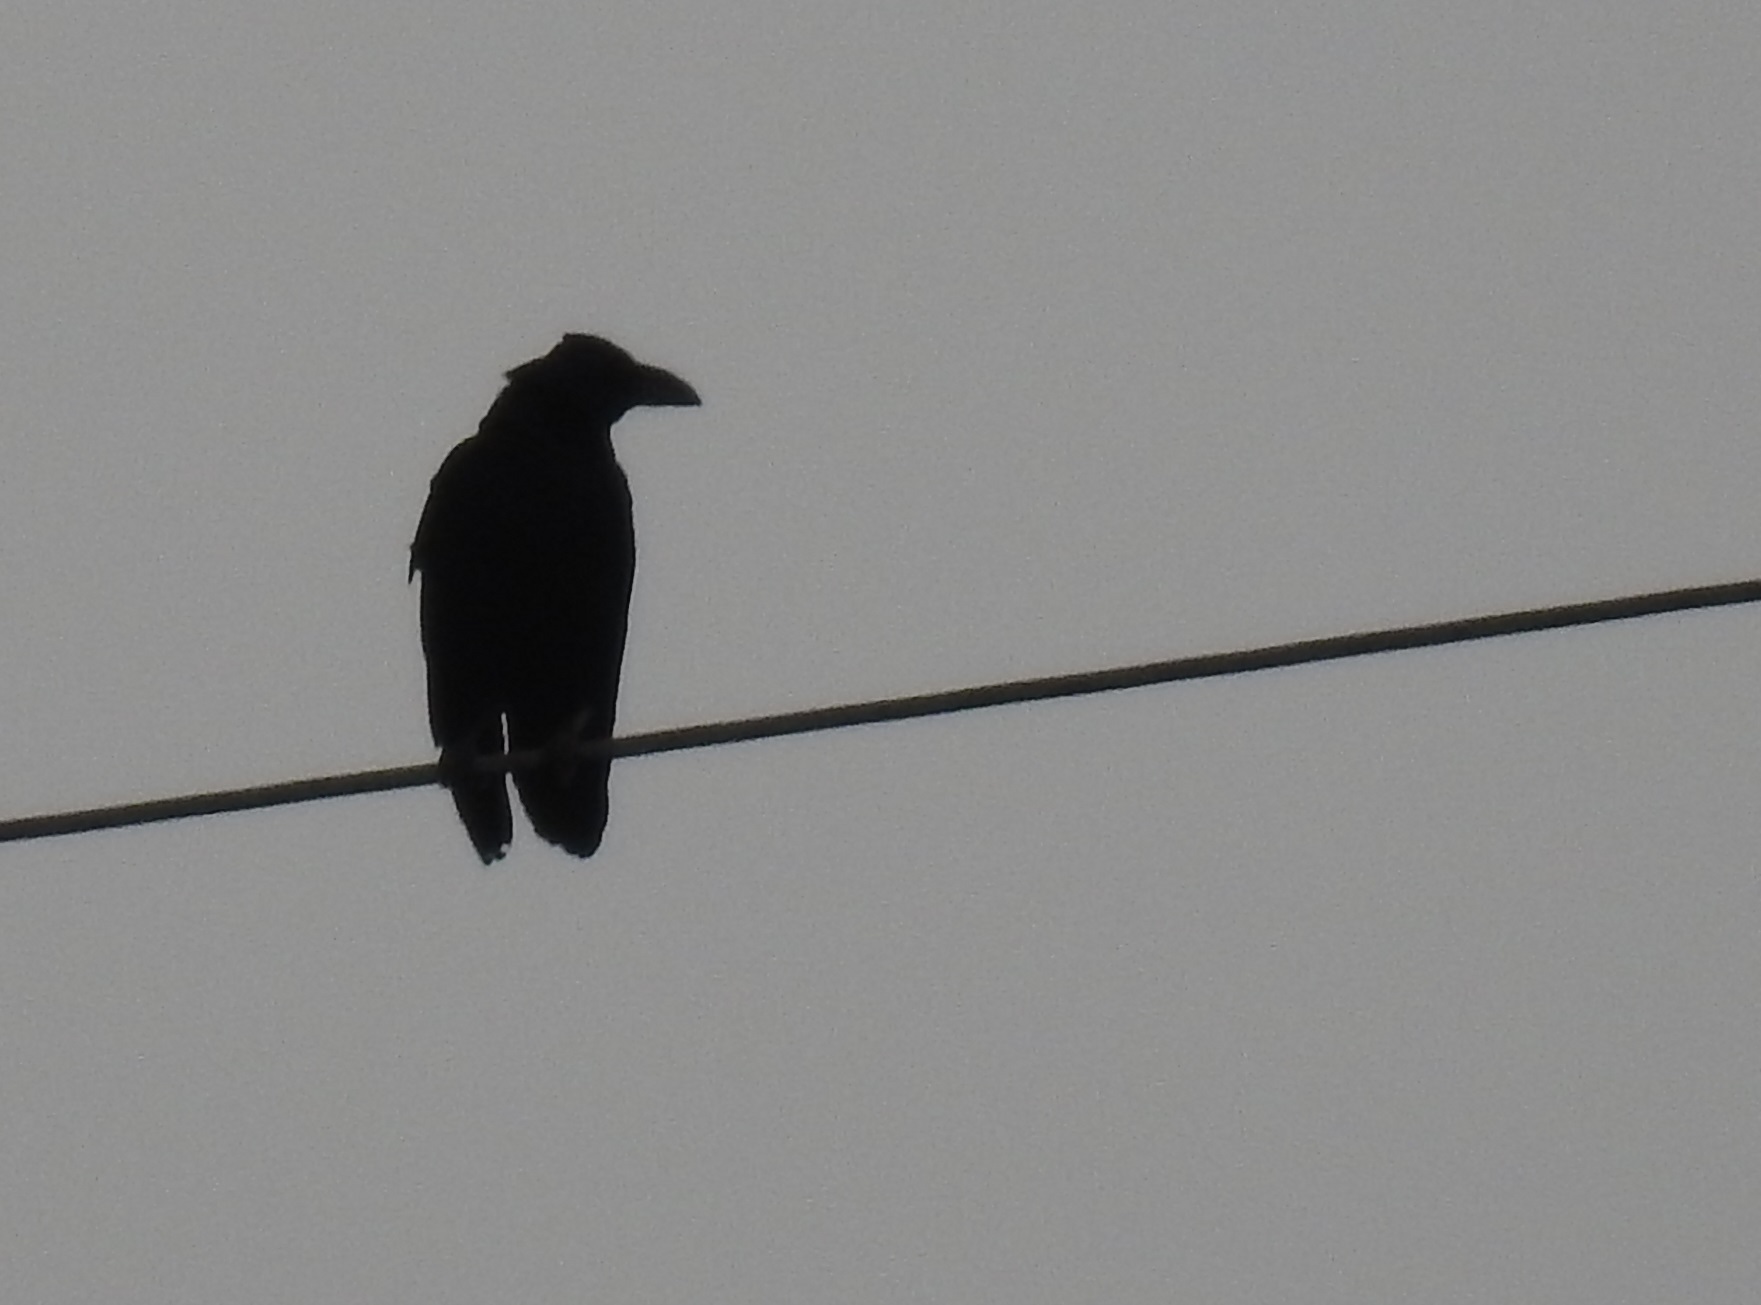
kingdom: Animalia
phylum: Chordata
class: Aves
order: Passeriformes
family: Corvidae
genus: Corvus
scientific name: Corvus corax
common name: Common raven
